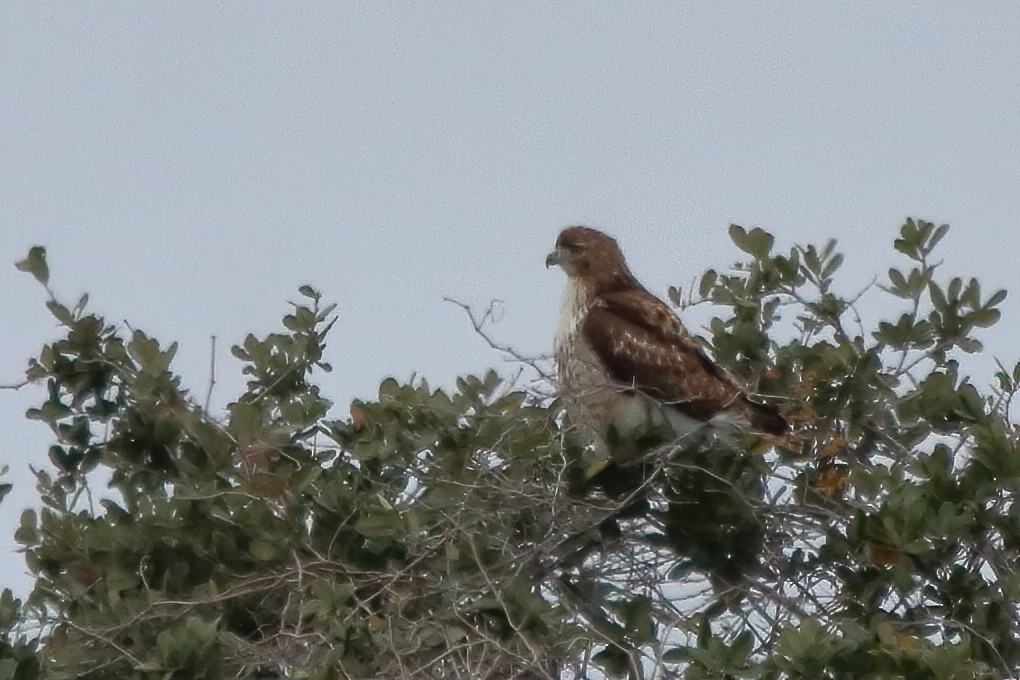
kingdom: Animalia
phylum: Chordata
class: Aves
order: Accipitriformes
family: Accipitridae
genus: Buteo
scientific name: Buteo jamaicensis
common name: Red-tailed hawk
